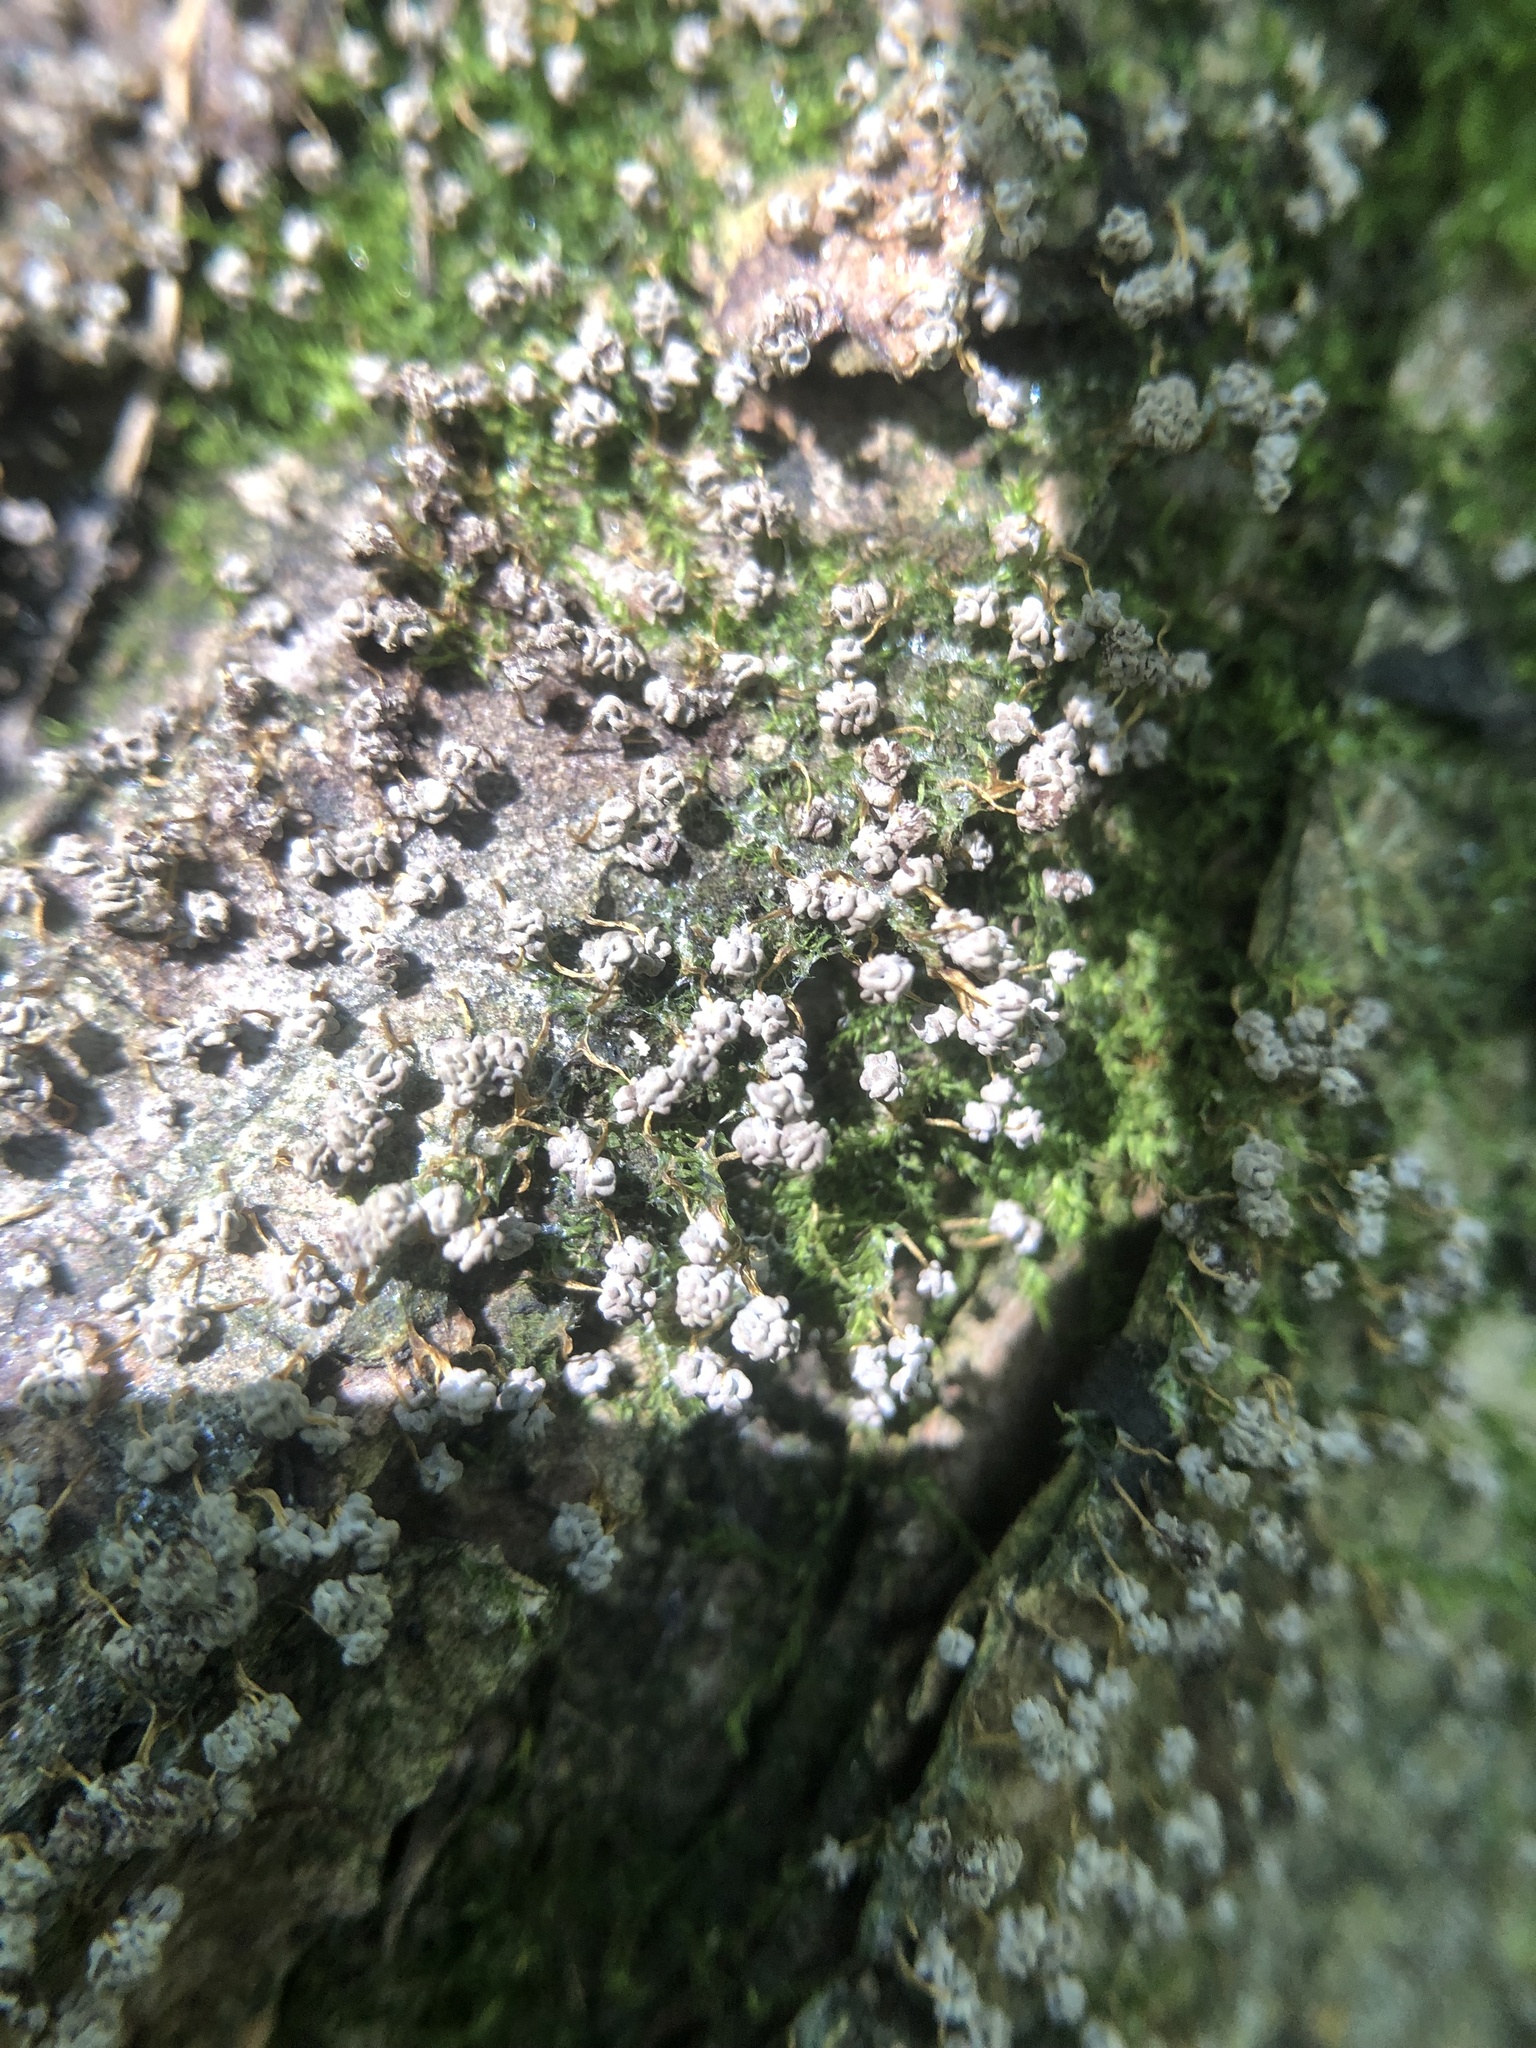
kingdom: Protozoa
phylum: Mycetozoa
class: Myxomycetes
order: Physarales
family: Physaraceae
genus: Physarum
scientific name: Physarum polycephalum
